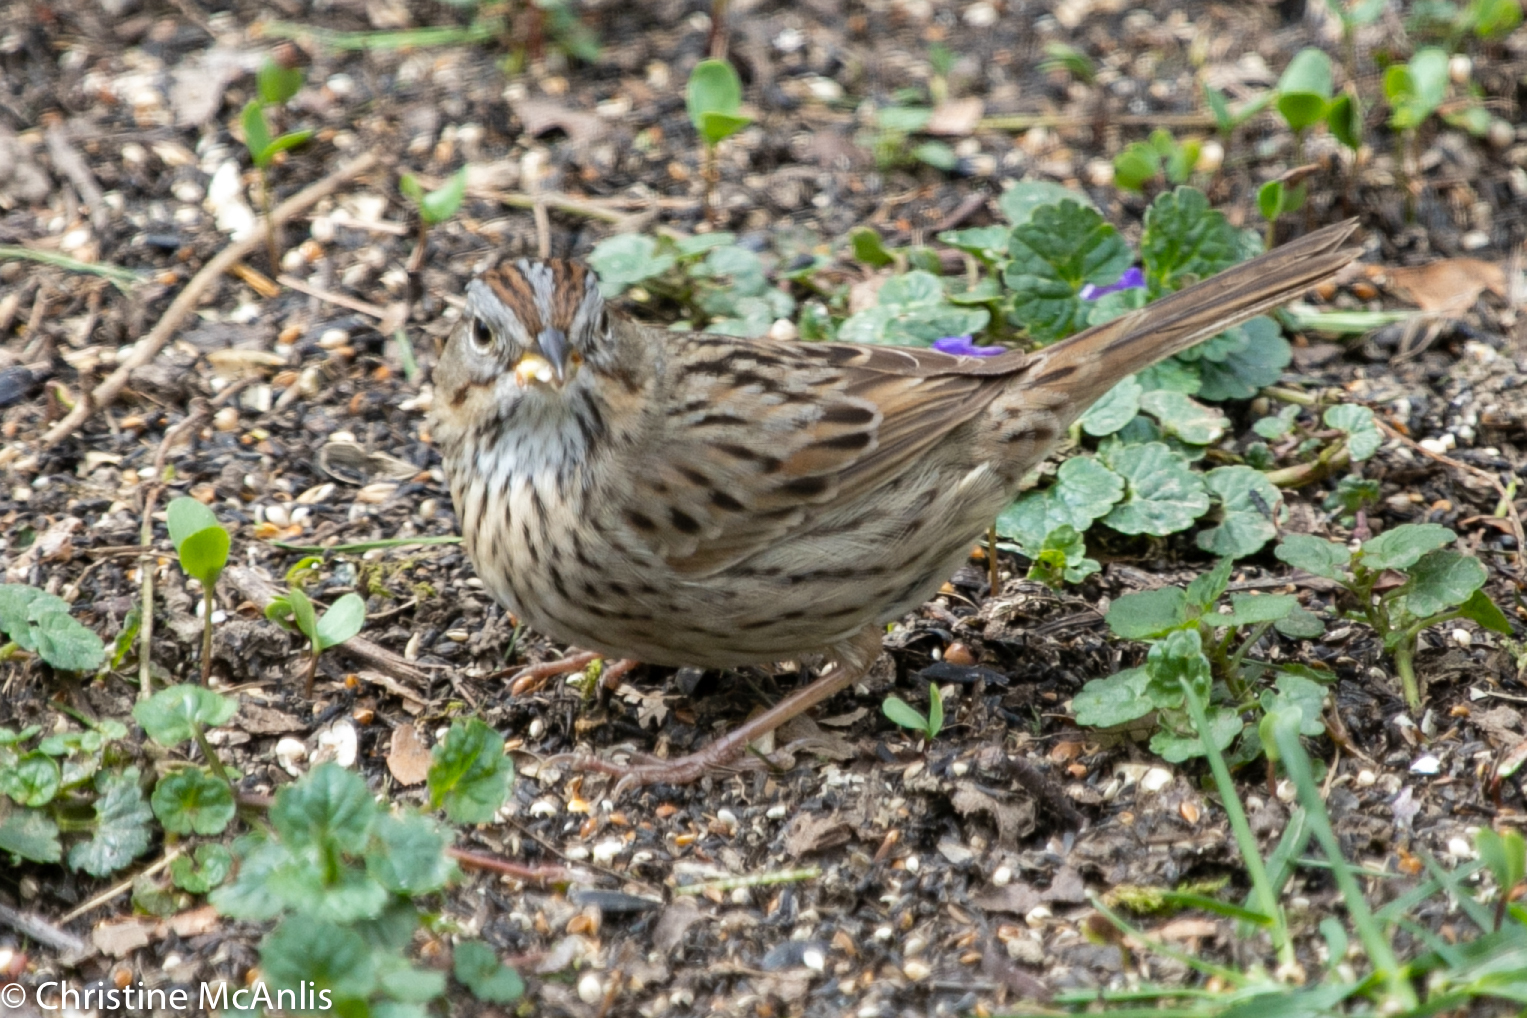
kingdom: Animalia
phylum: Chordata
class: Aves
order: Passeriformes
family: Passerellidae
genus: Melospiza
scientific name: Melospiza lincolnii
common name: Lincoln's sparrow
